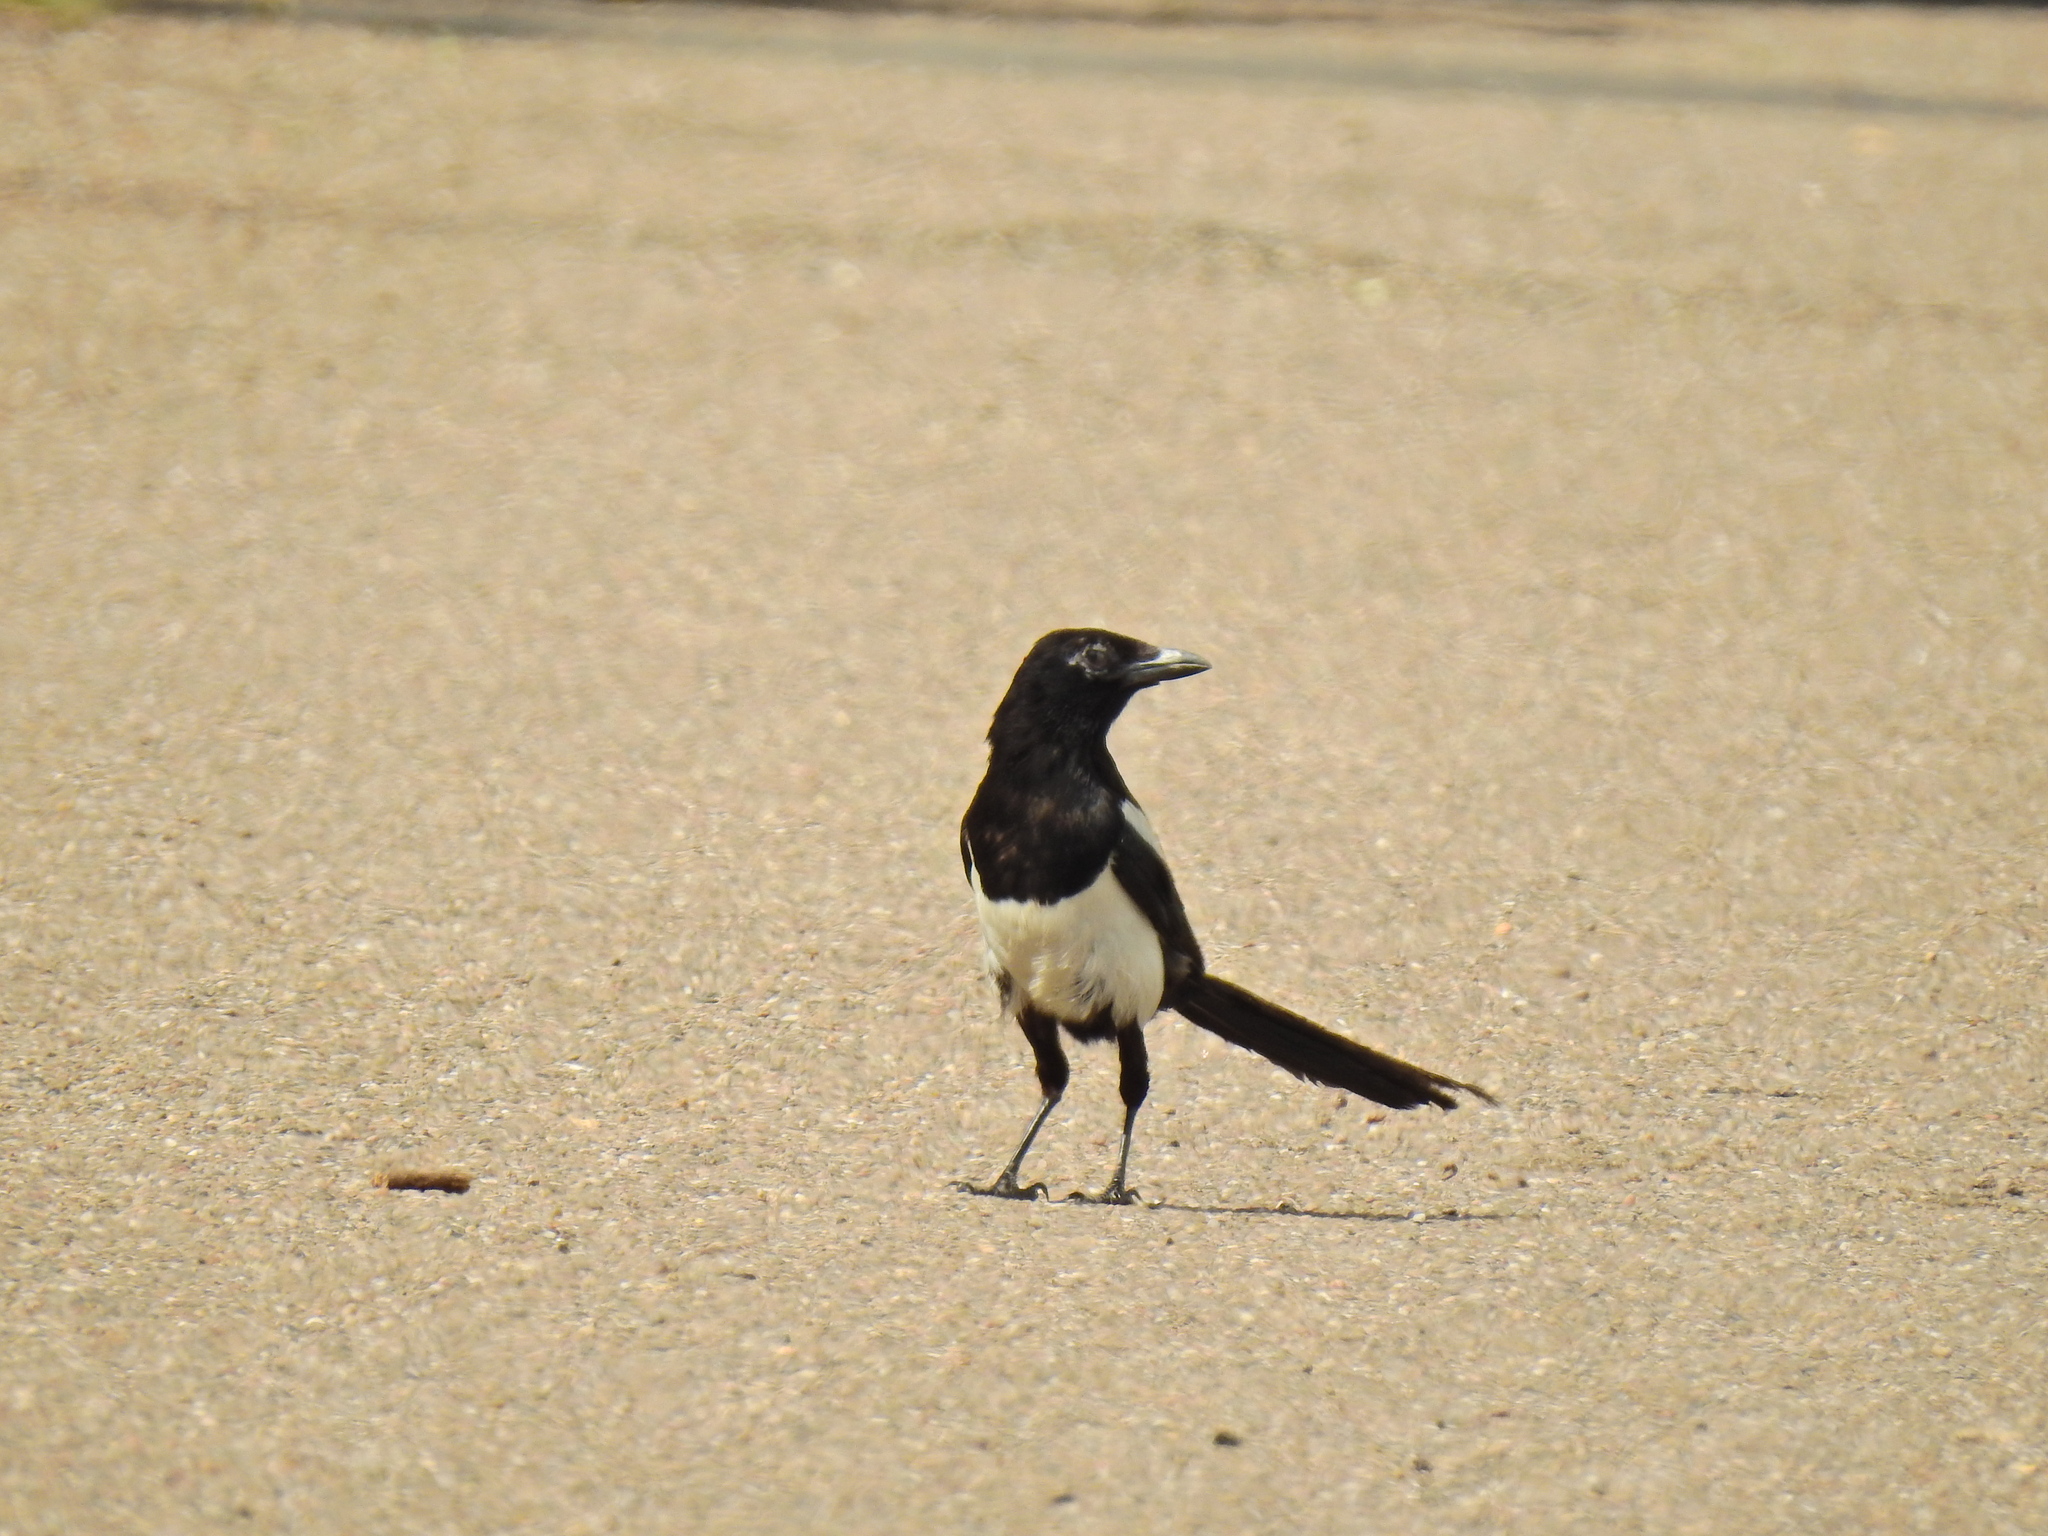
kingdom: Animalia
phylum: Chordata
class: Aves
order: Passeriformes
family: Corvidae
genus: Pica
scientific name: Pica pica
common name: Eurasian magpie
